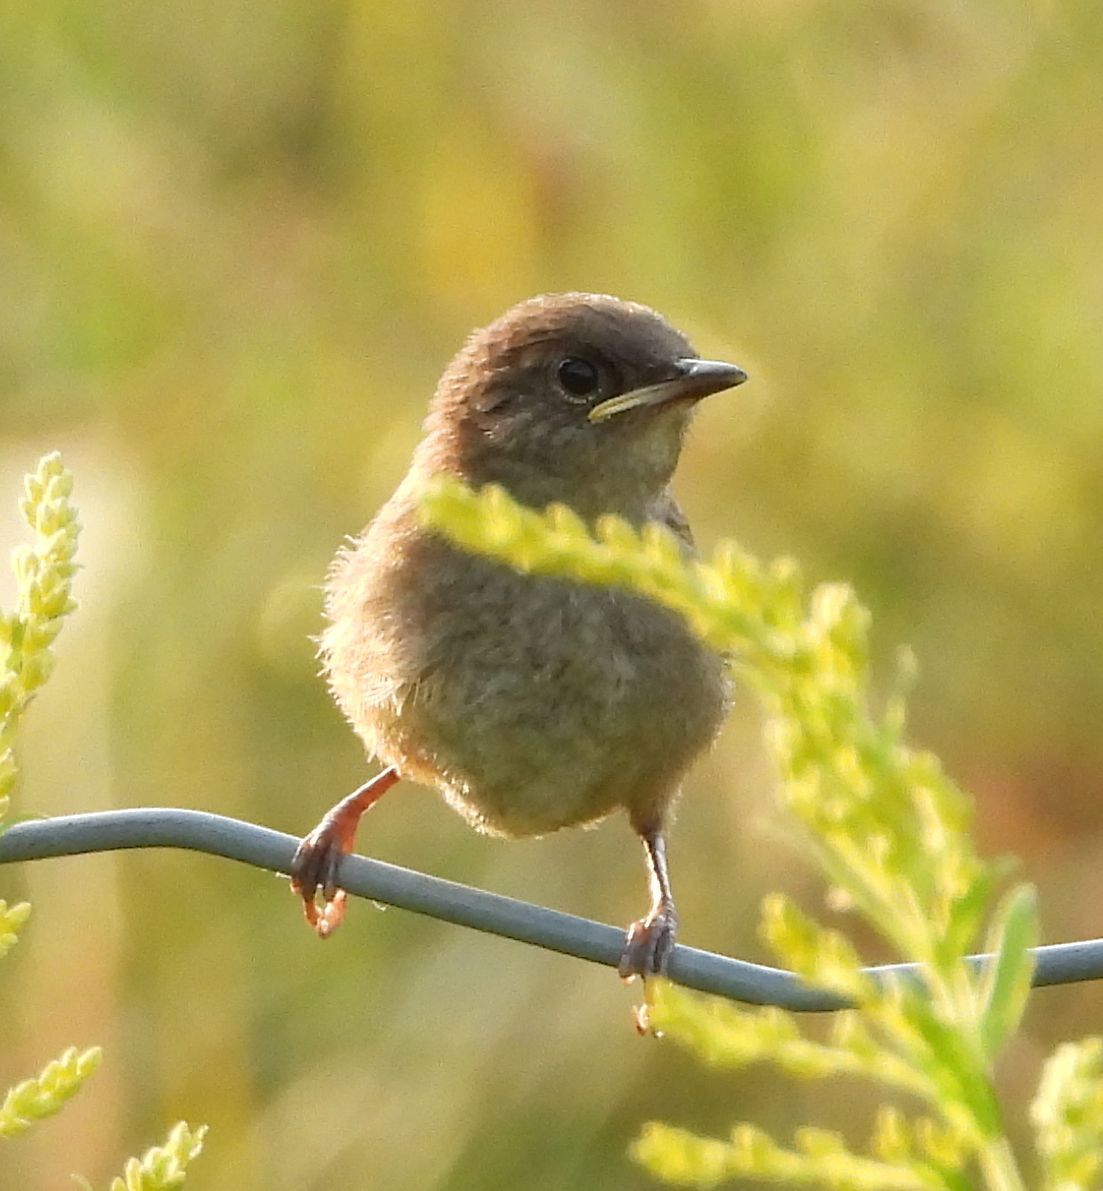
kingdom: Animalia
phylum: Chordata
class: Aves
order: Passeriformes
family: Troglodytidae
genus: Troglodytes
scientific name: Troglodytes aedon
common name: House wren
